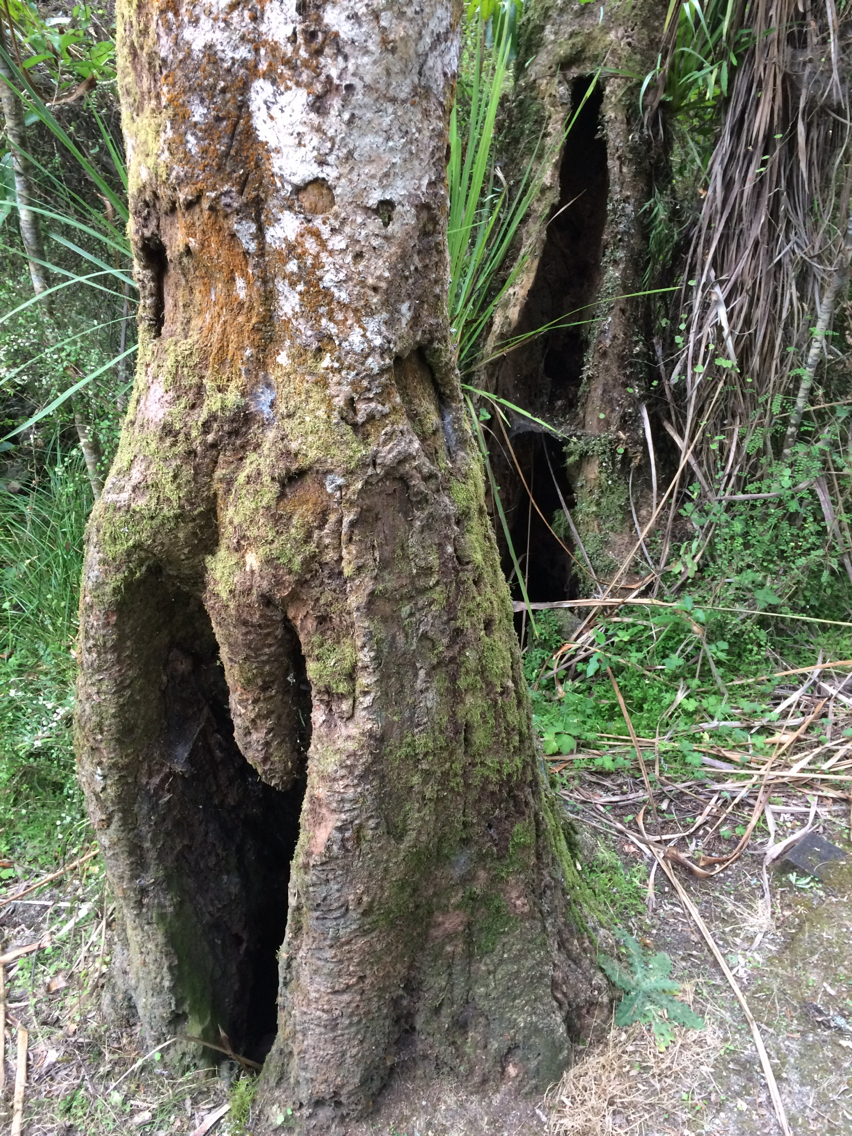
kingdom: Plantae
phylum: Tracheophyta
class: Liliopsida
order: Asparagales
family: Asparagaceae
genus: Cordyline
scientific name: Cordyline australis
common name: Cabbage-palm
